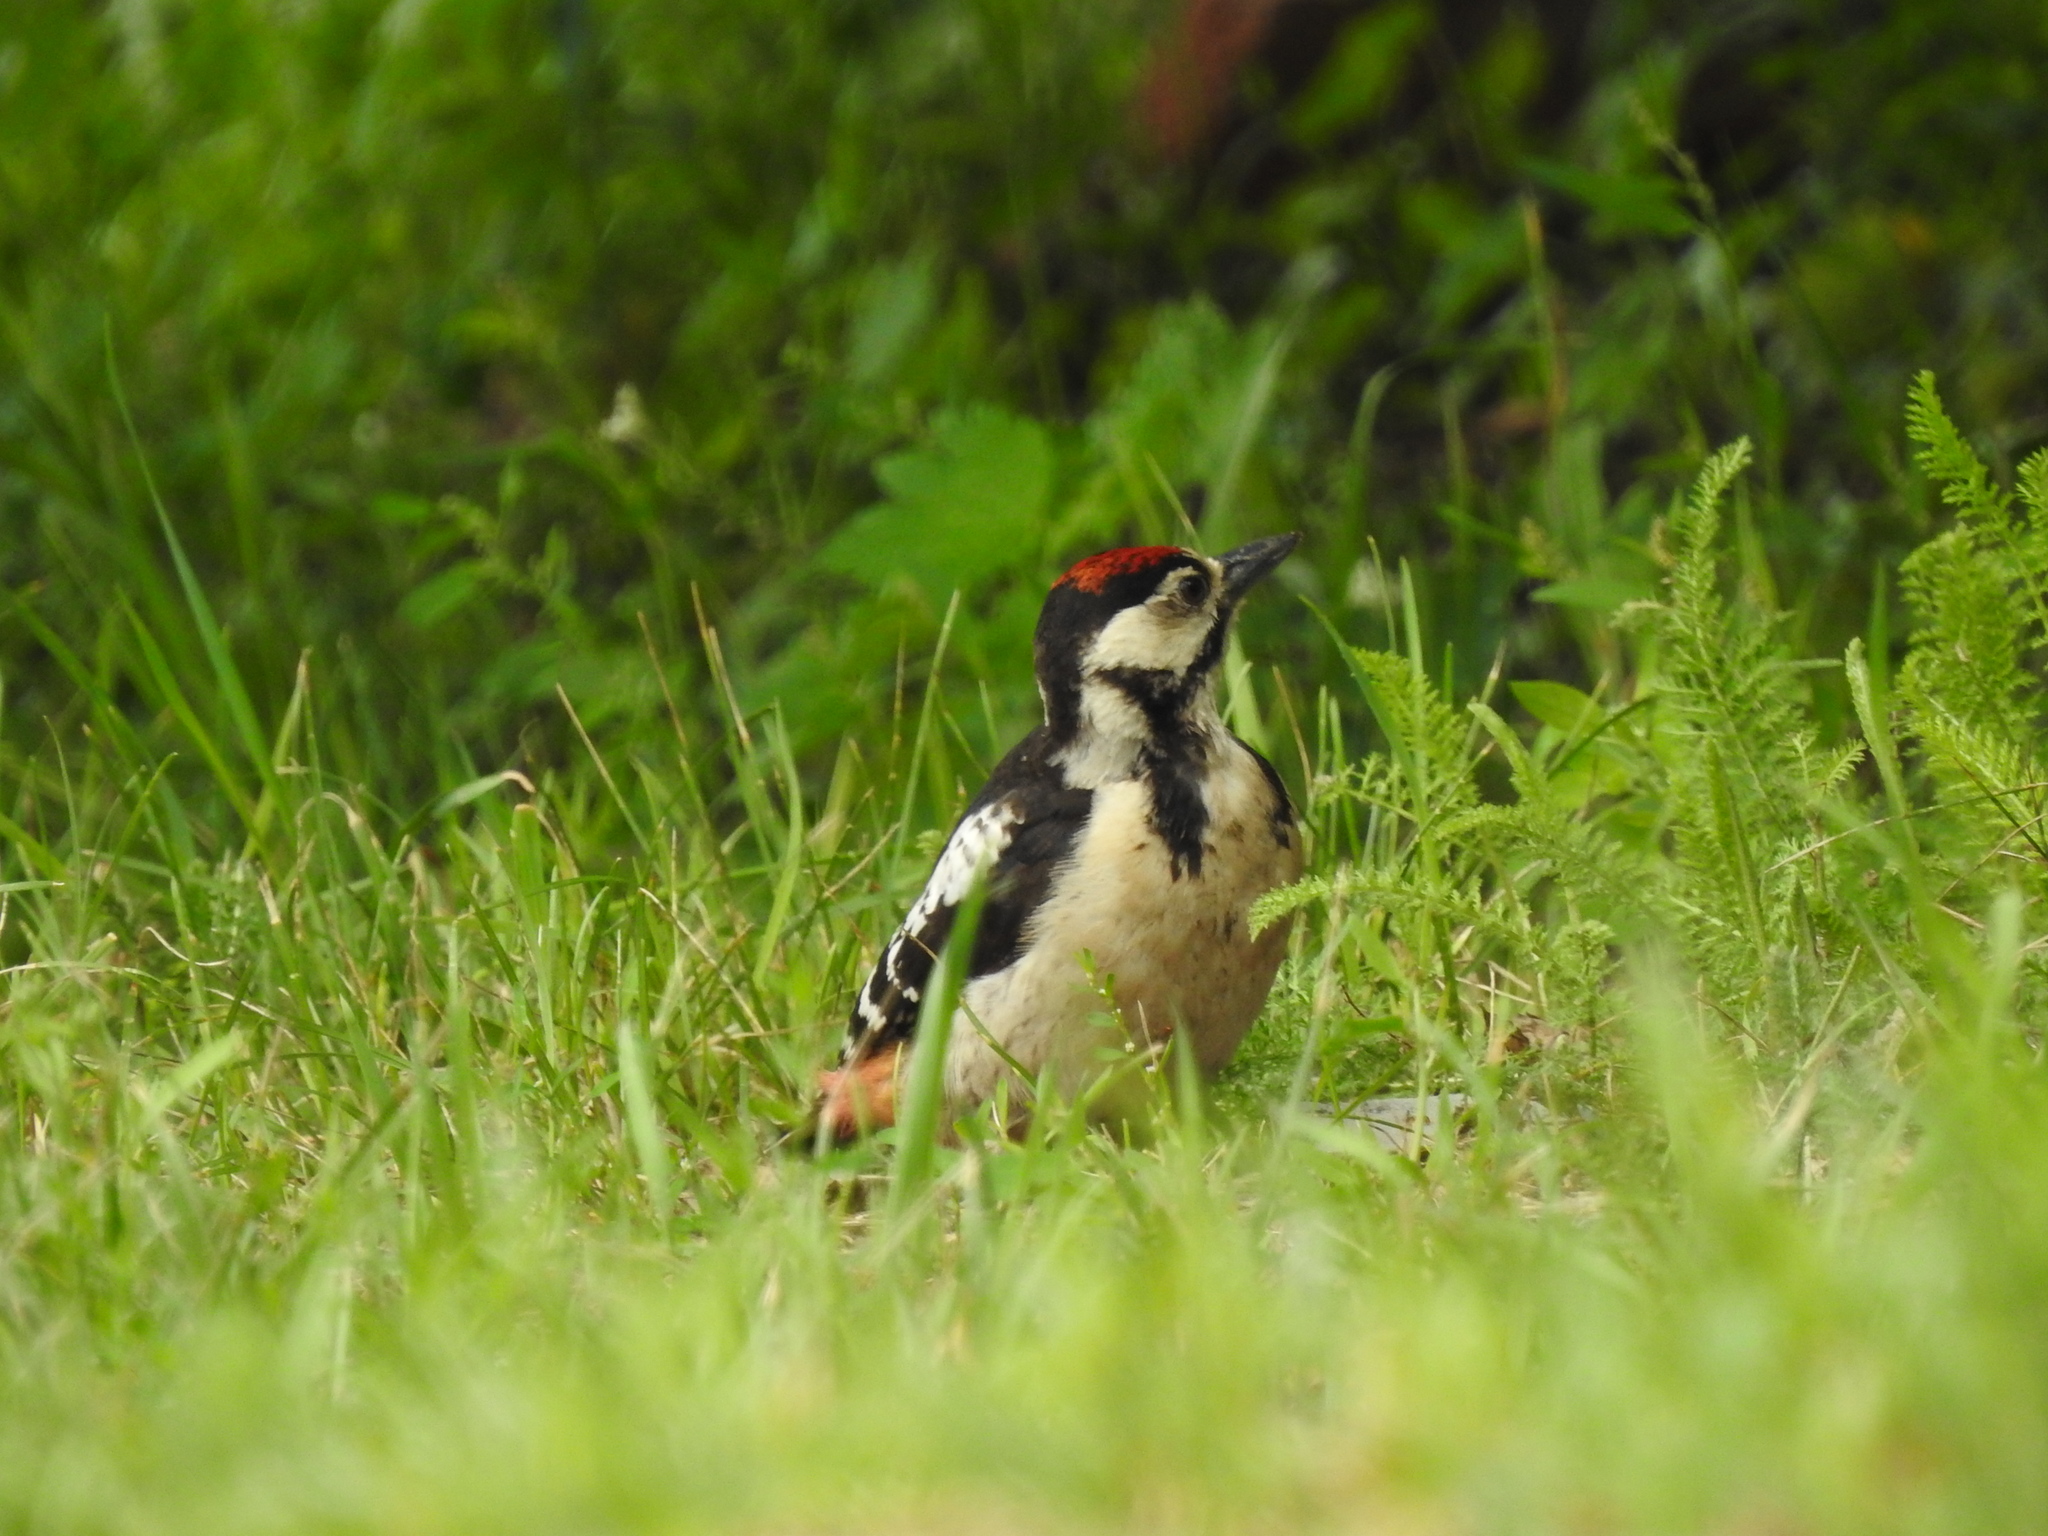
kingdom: Animalia
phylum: Chordata
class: Aves
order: Piciformes
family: Picidae
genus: Dendrocopos
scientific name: Dendrocopos major
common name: Great spotted woodpecker
